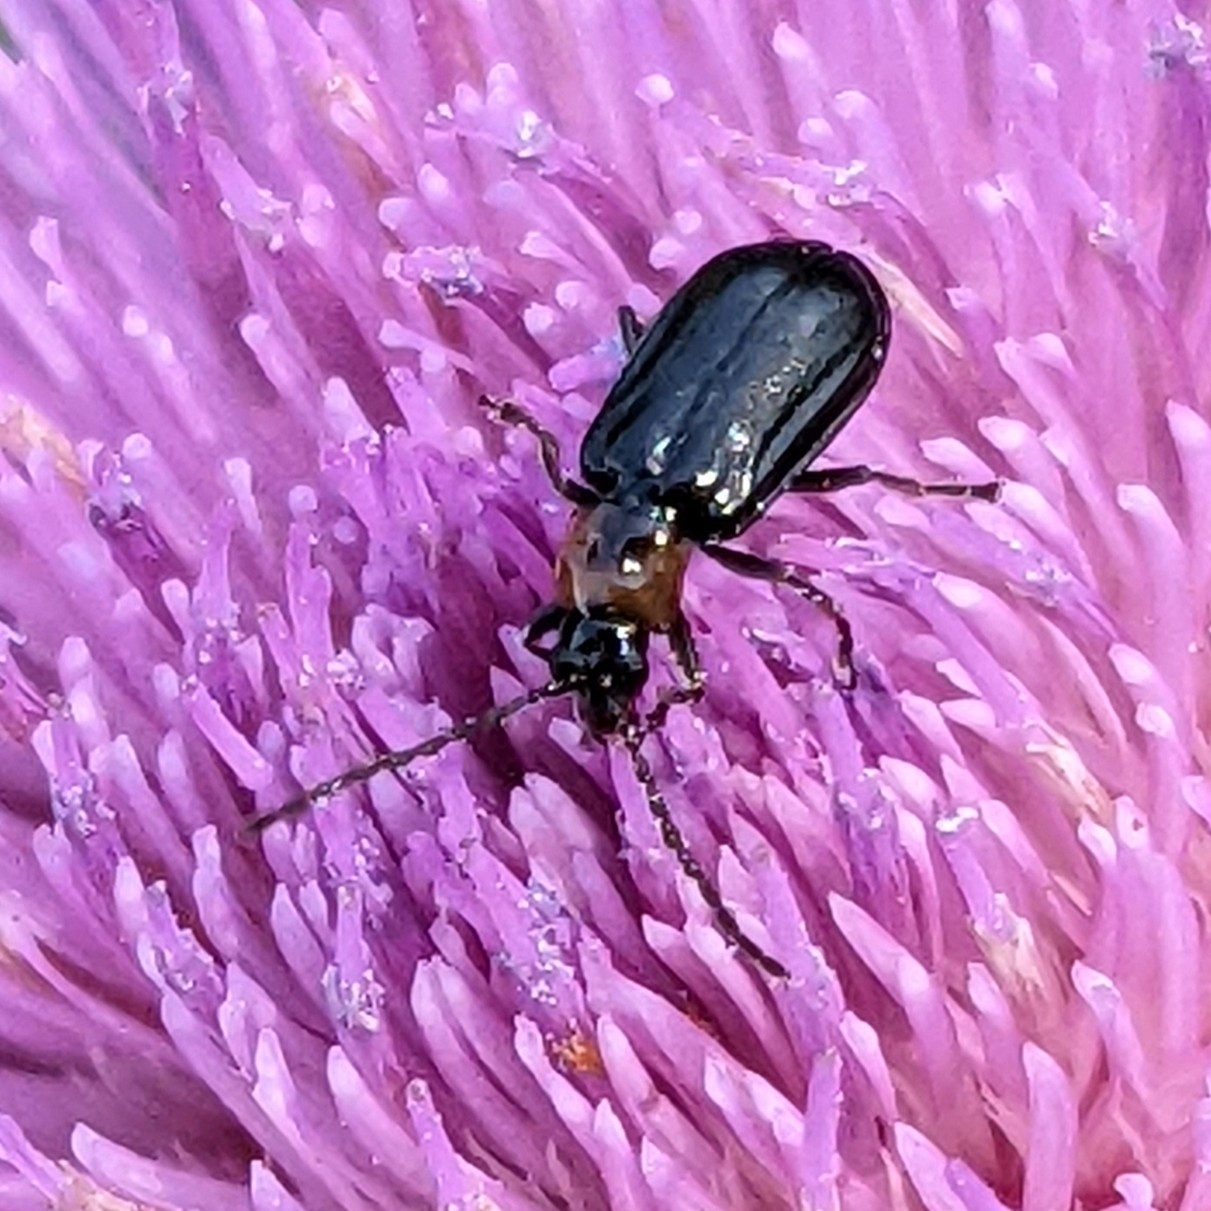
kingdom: Animalia
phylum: Arthropoda
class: Insecta
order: Coleoptera
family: Chrysomelidae
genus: Diabrotica
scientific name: Diabrotica cristata
